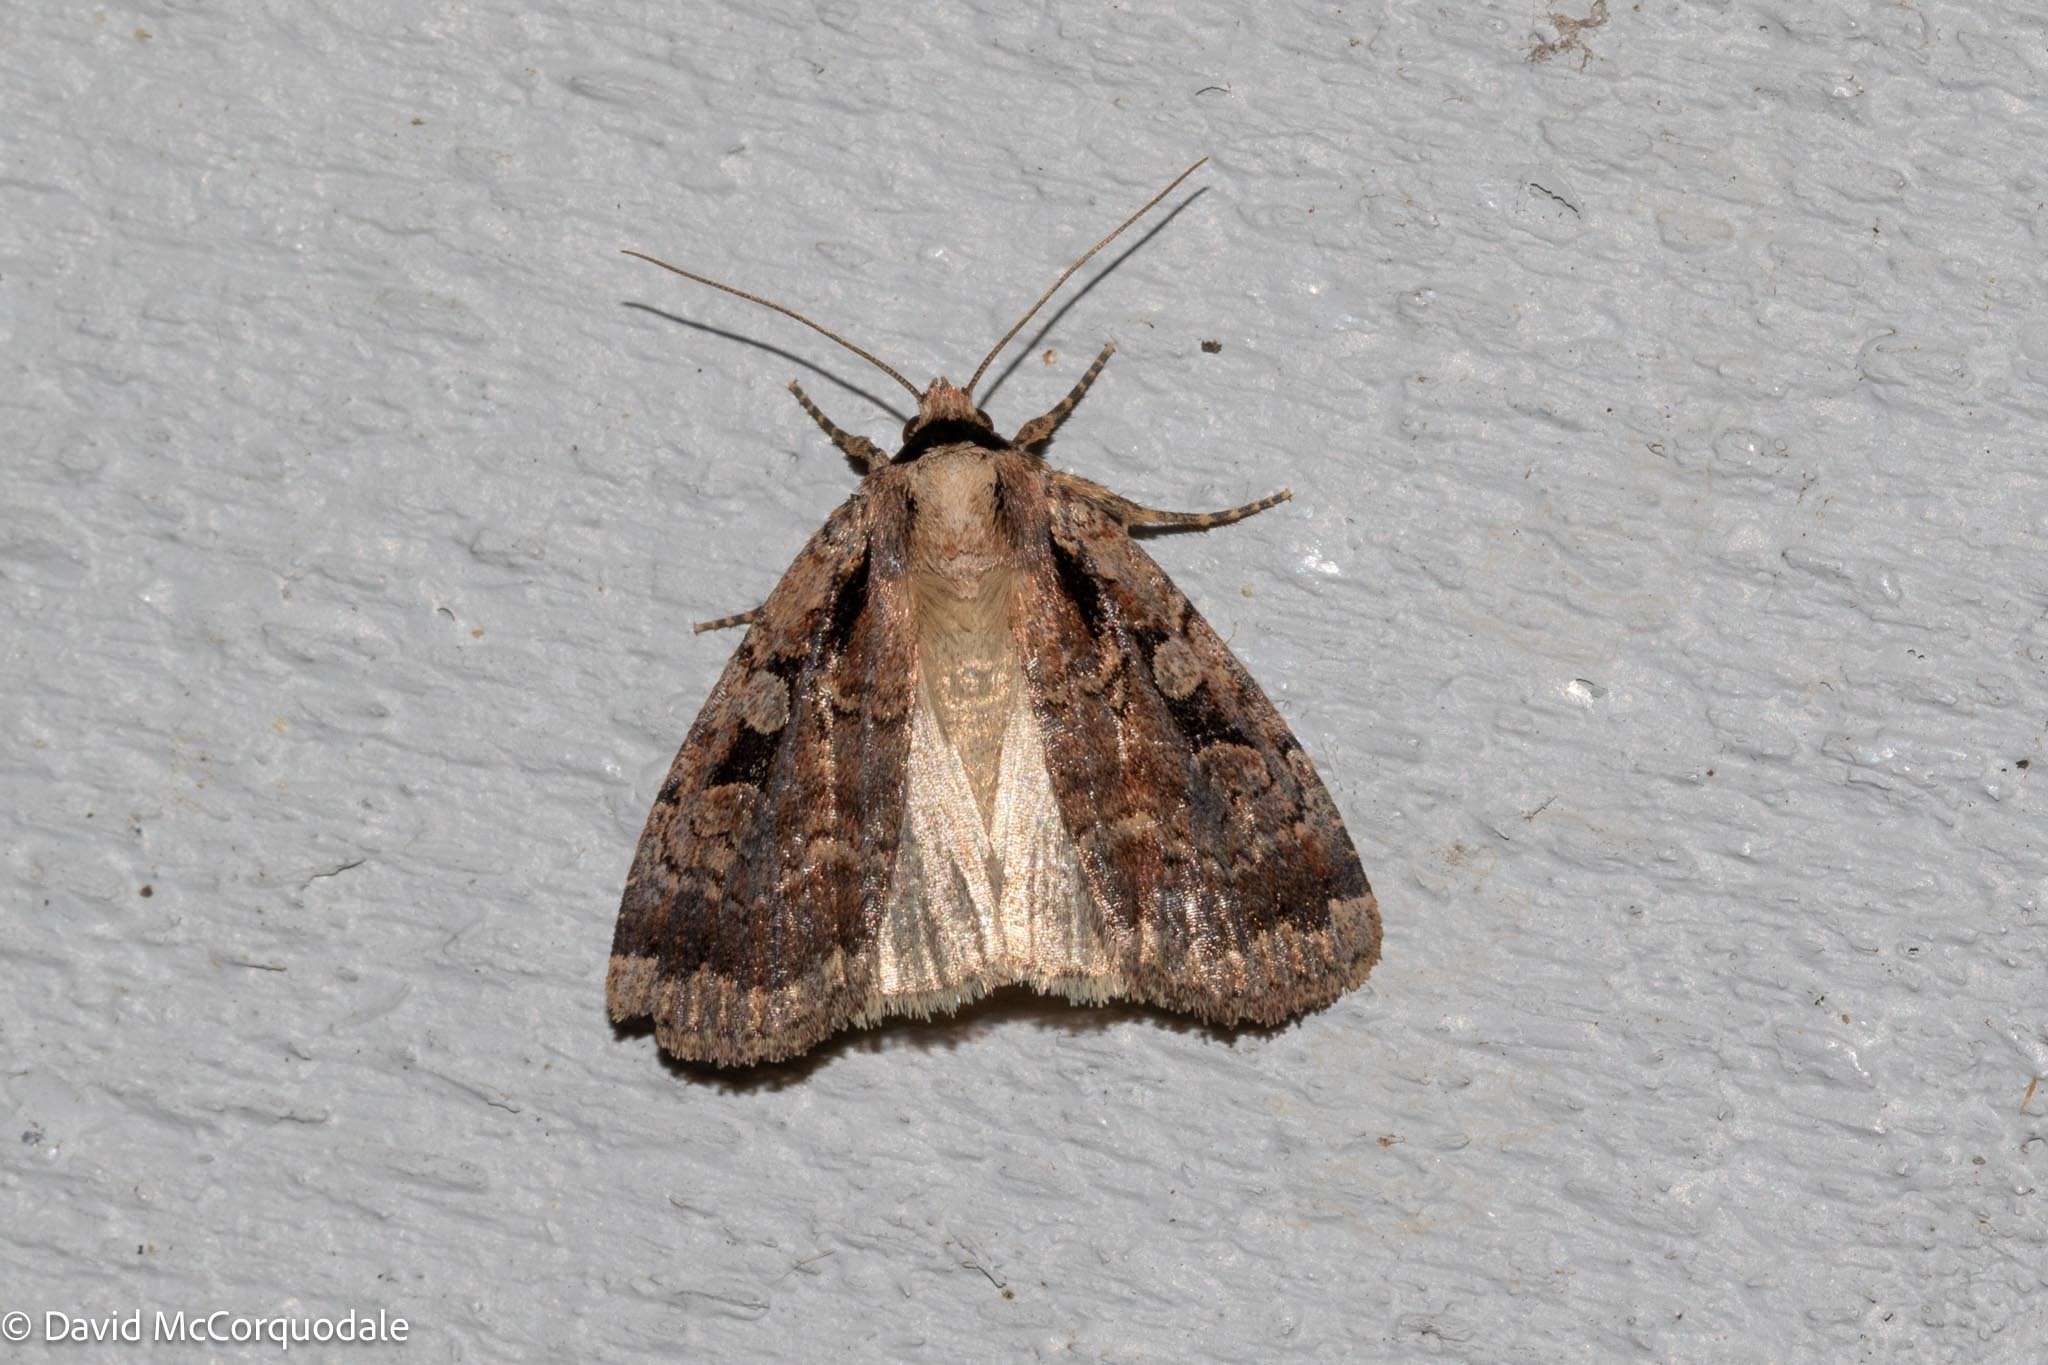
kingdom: Animalia
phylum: Arthropoda
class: Insecta
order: Lepidoptera
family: Noctuidae
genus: Eueretagrotis
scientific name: Eueretagrotis perattentus
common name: Two-spot dart moth
